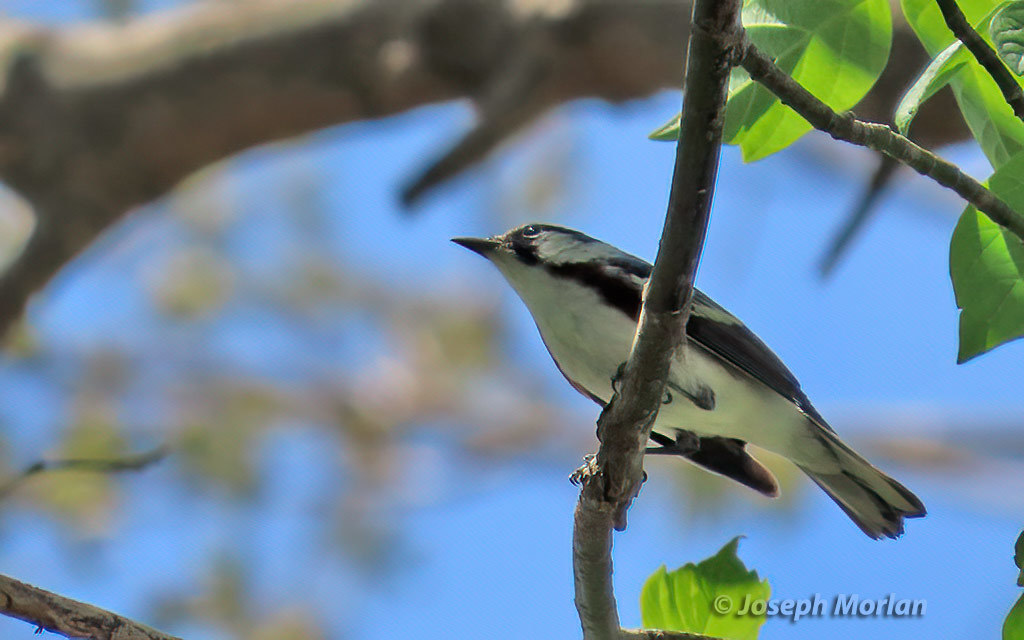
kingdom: Animalia
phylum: Chordata
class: Aves
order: Passeriformes
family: Parulidae
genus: Setophaga
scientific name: Setophaga pensylvanica
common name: Chestnut-sided warbler
